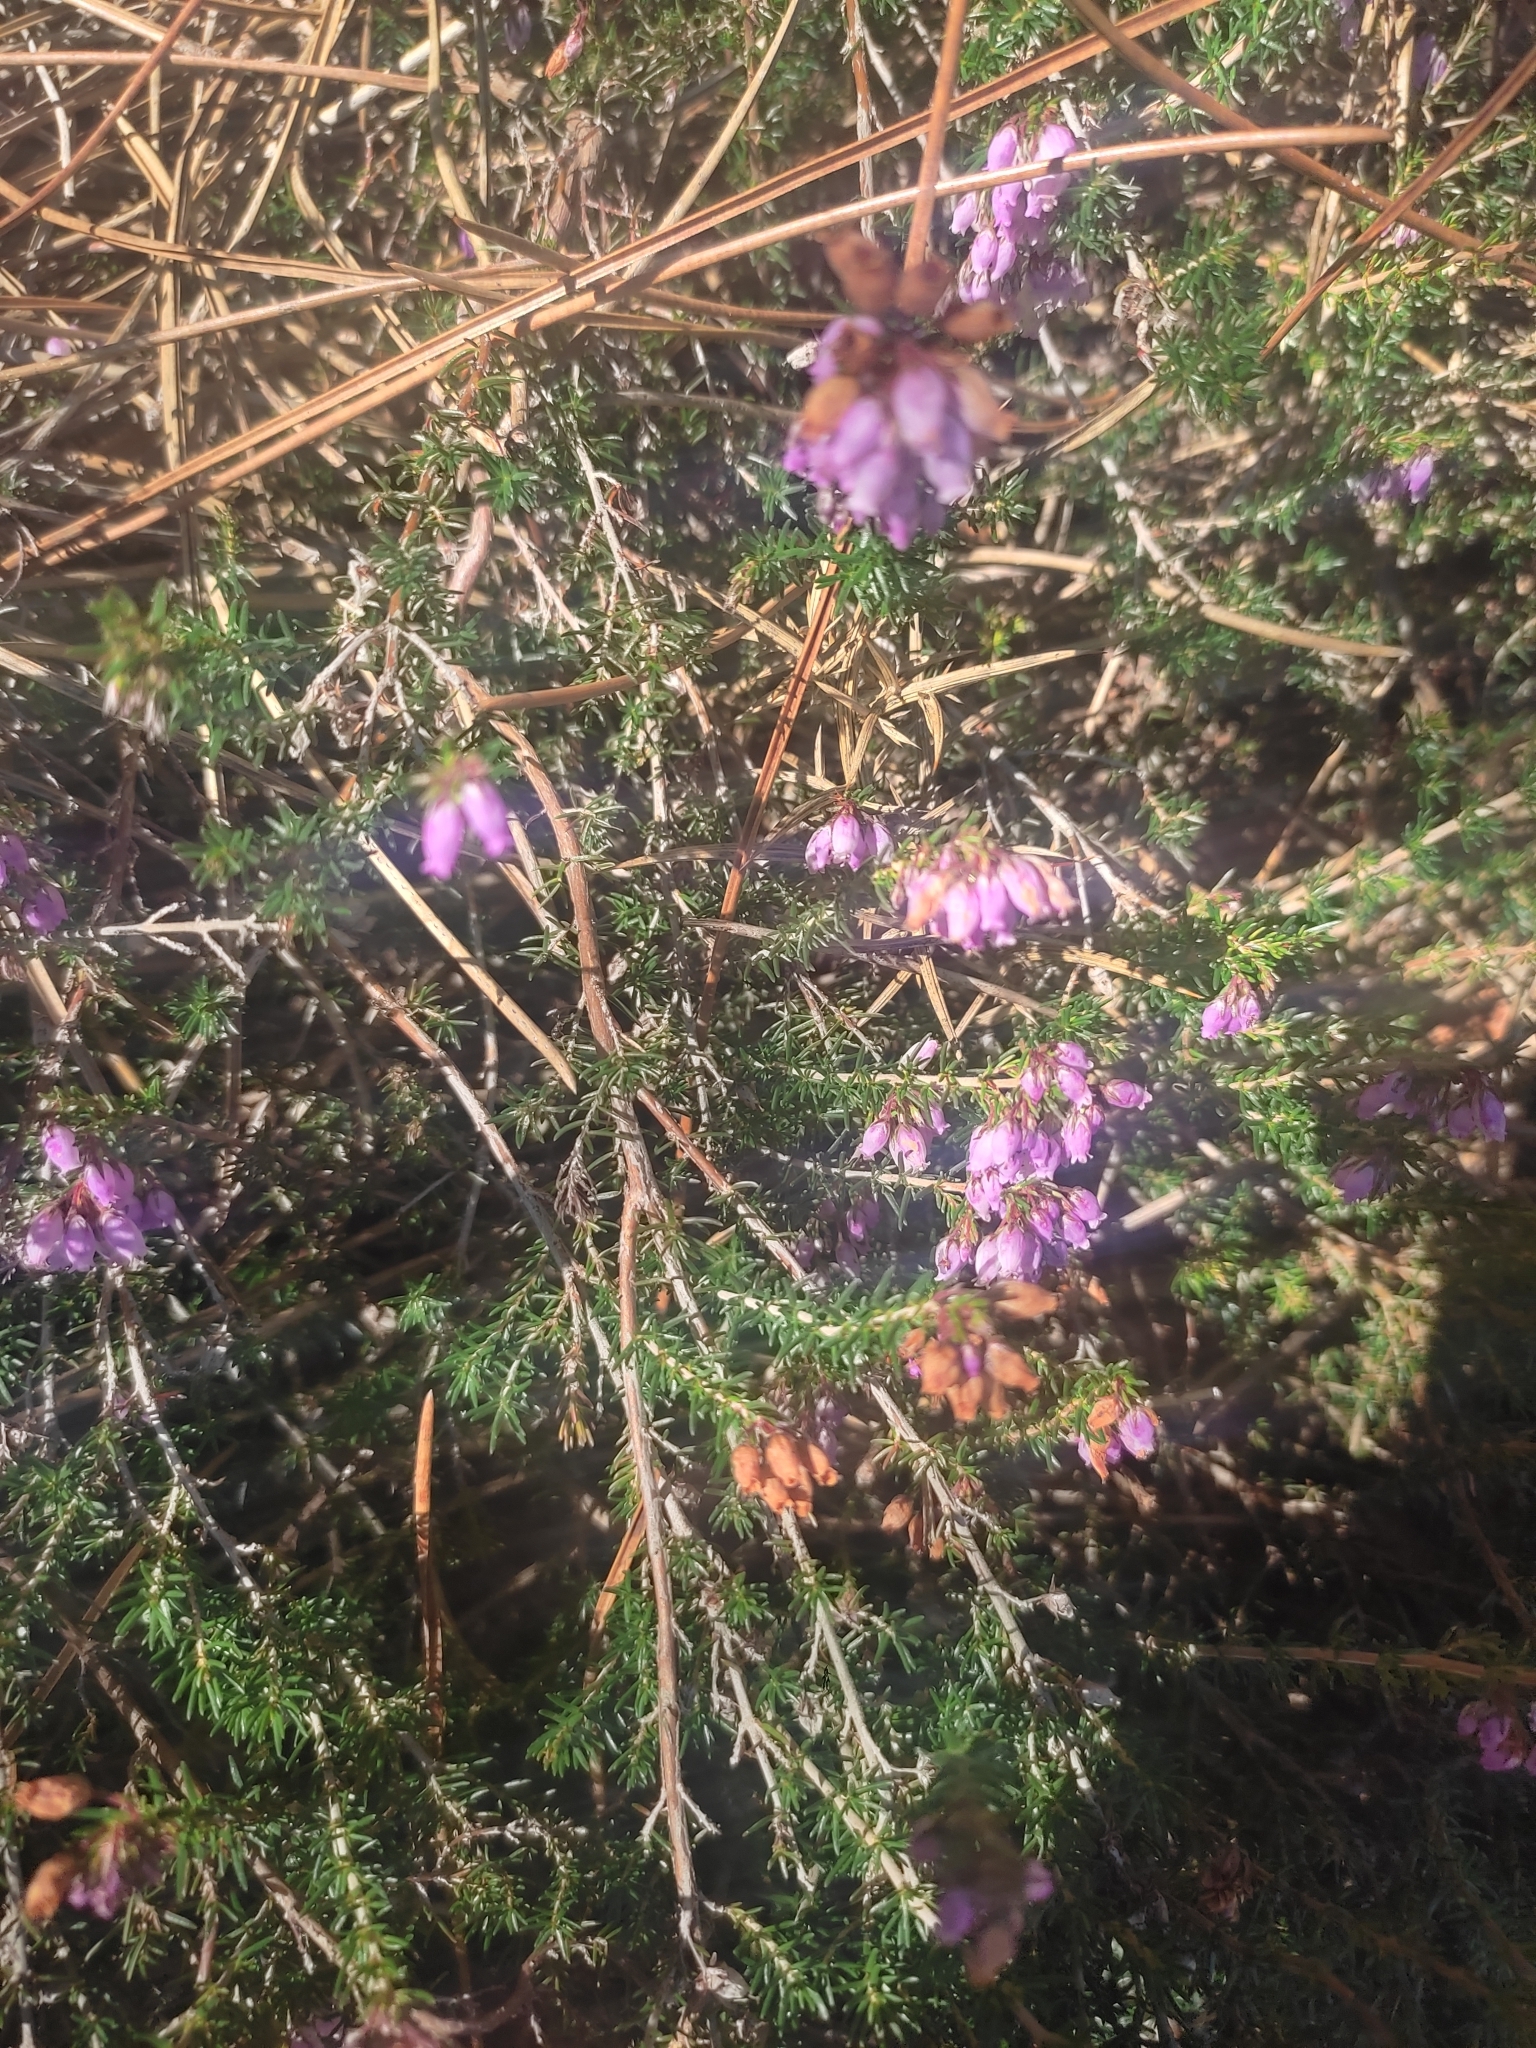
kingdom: Plantae
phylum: Tracheophyta
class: Magnoliopsida
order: Ericales
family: Ericaceae
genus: Erica
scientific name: Erica cinerea
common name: Bell heather
